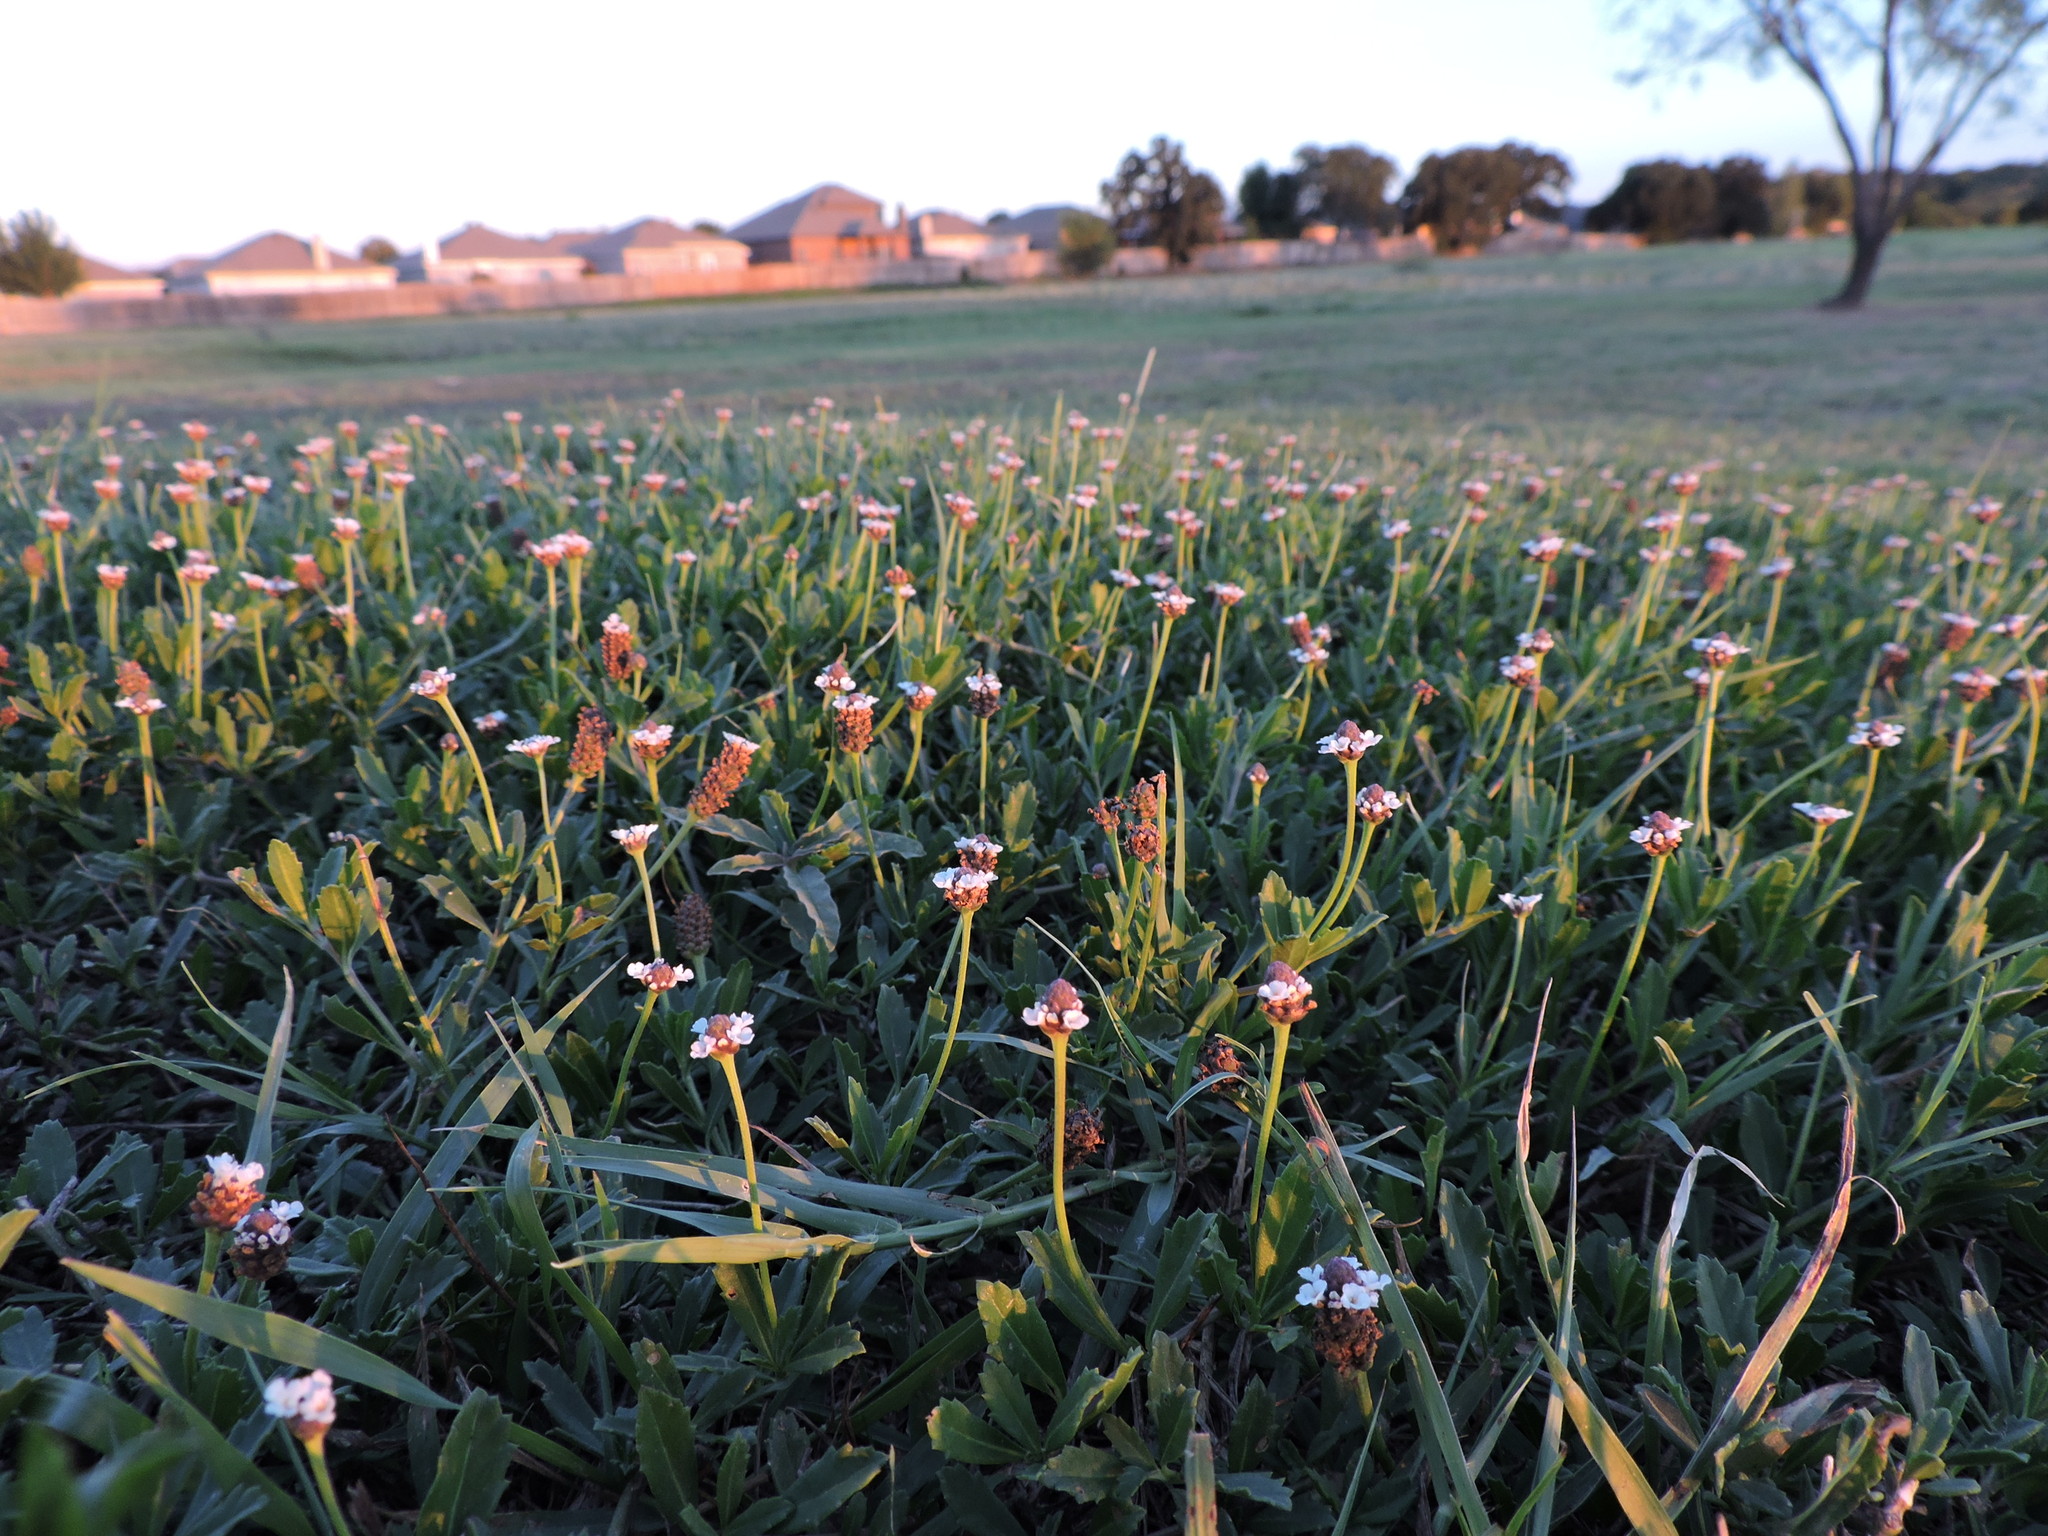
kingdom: Plantae
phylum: Tracheophyta
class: Magnoliopsida
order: Lamiales
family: Verbenaceae
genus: Phyla
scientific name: Phyla nodiflora
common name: Frogfruit
